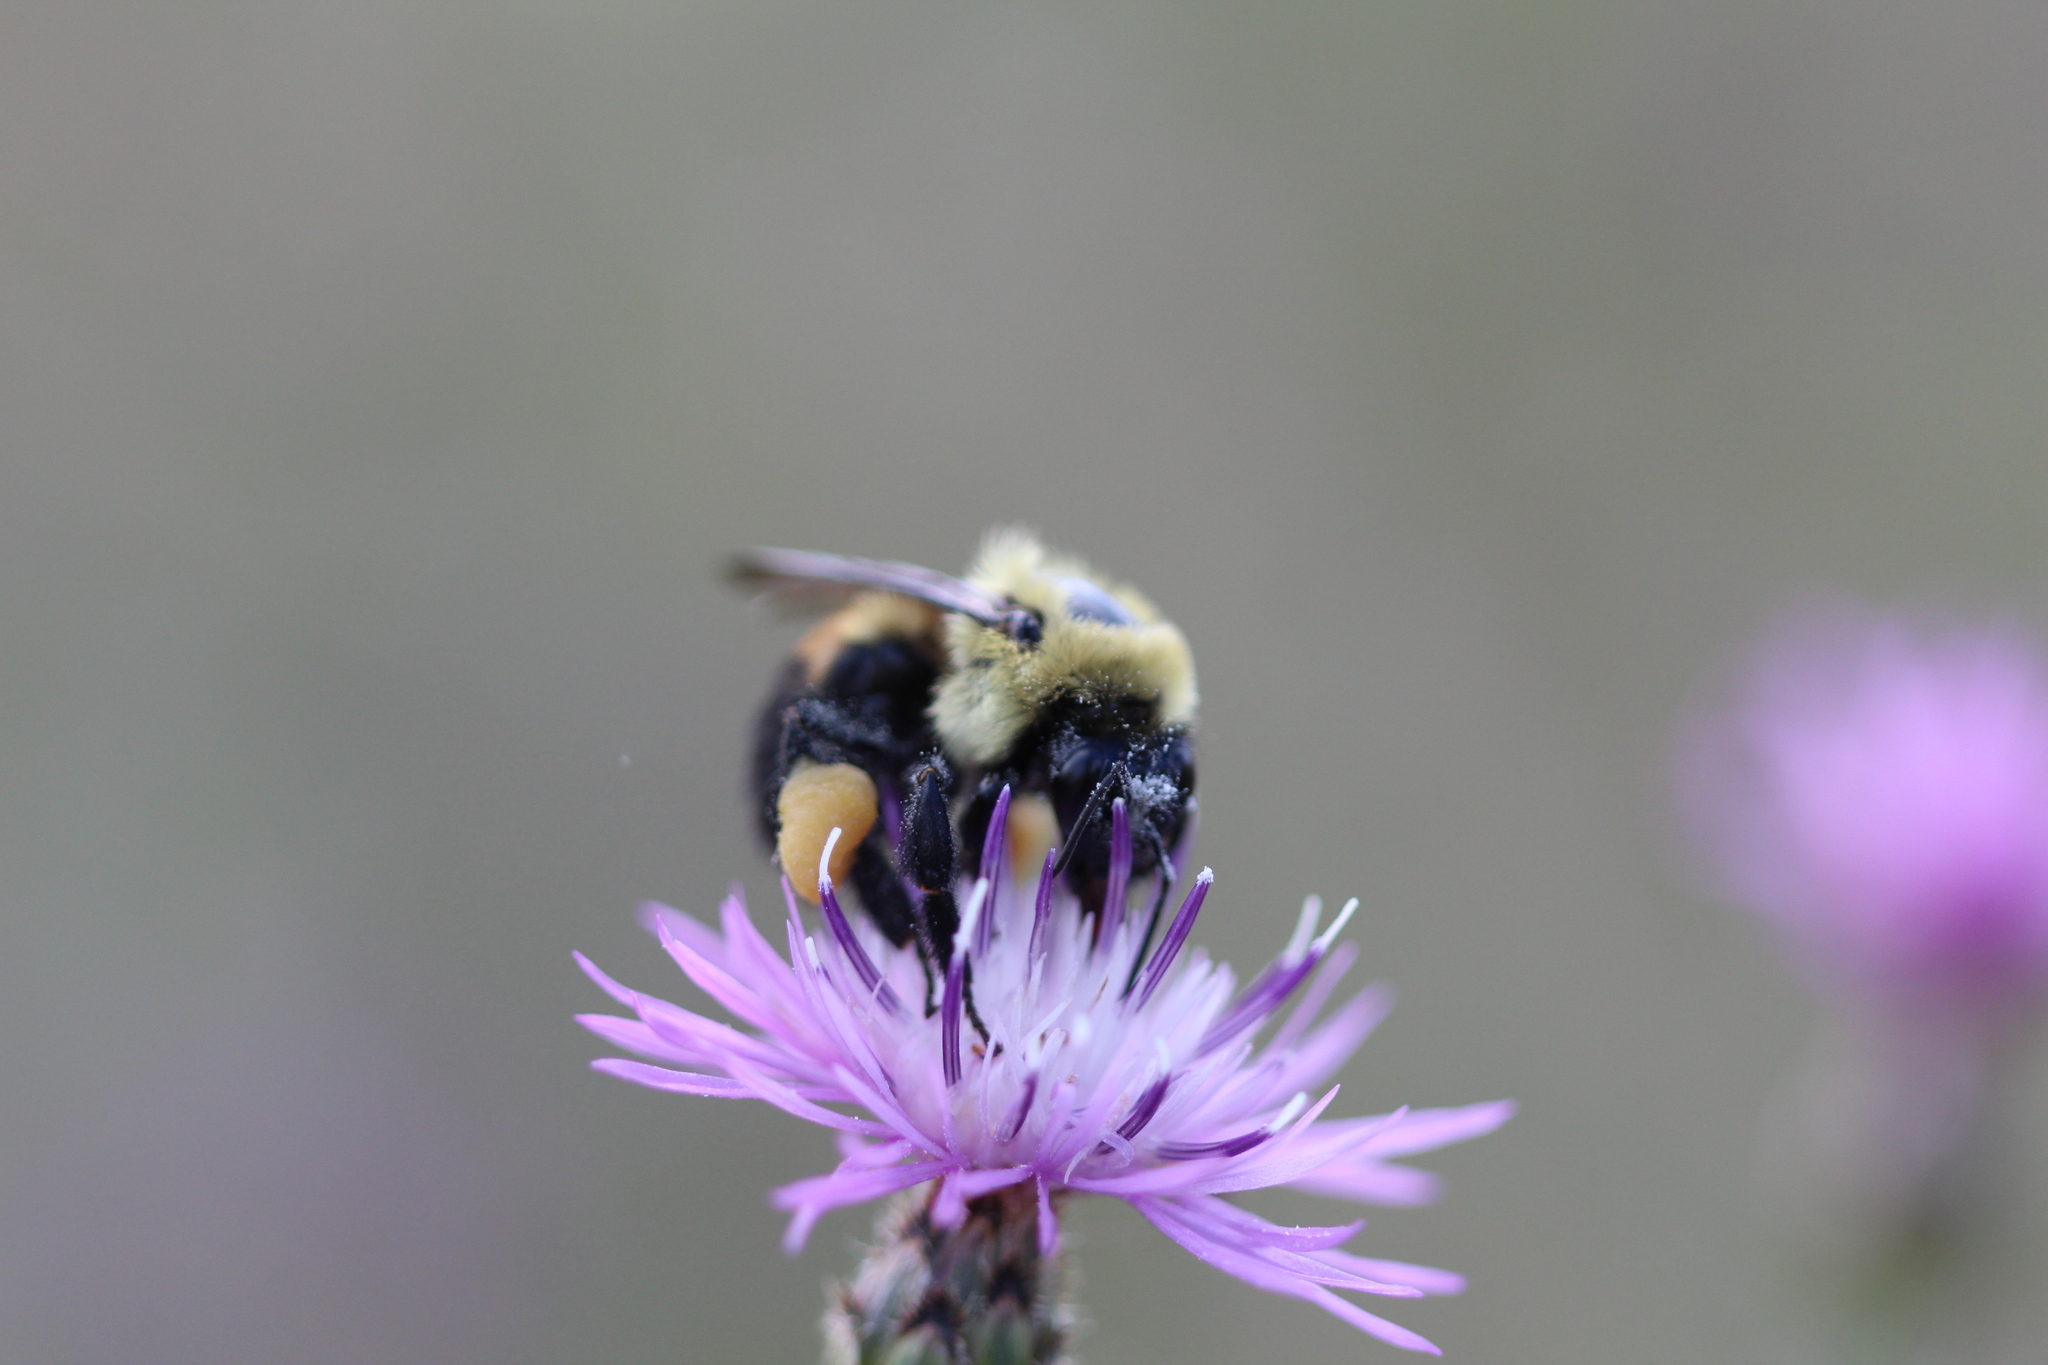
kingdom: Animalia
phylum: Arthropoda
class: Insecta
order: Hymenoptera
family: Apidae
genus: Bombus
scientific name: Bombus griseocollis
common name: Brown-belted bumble bee
